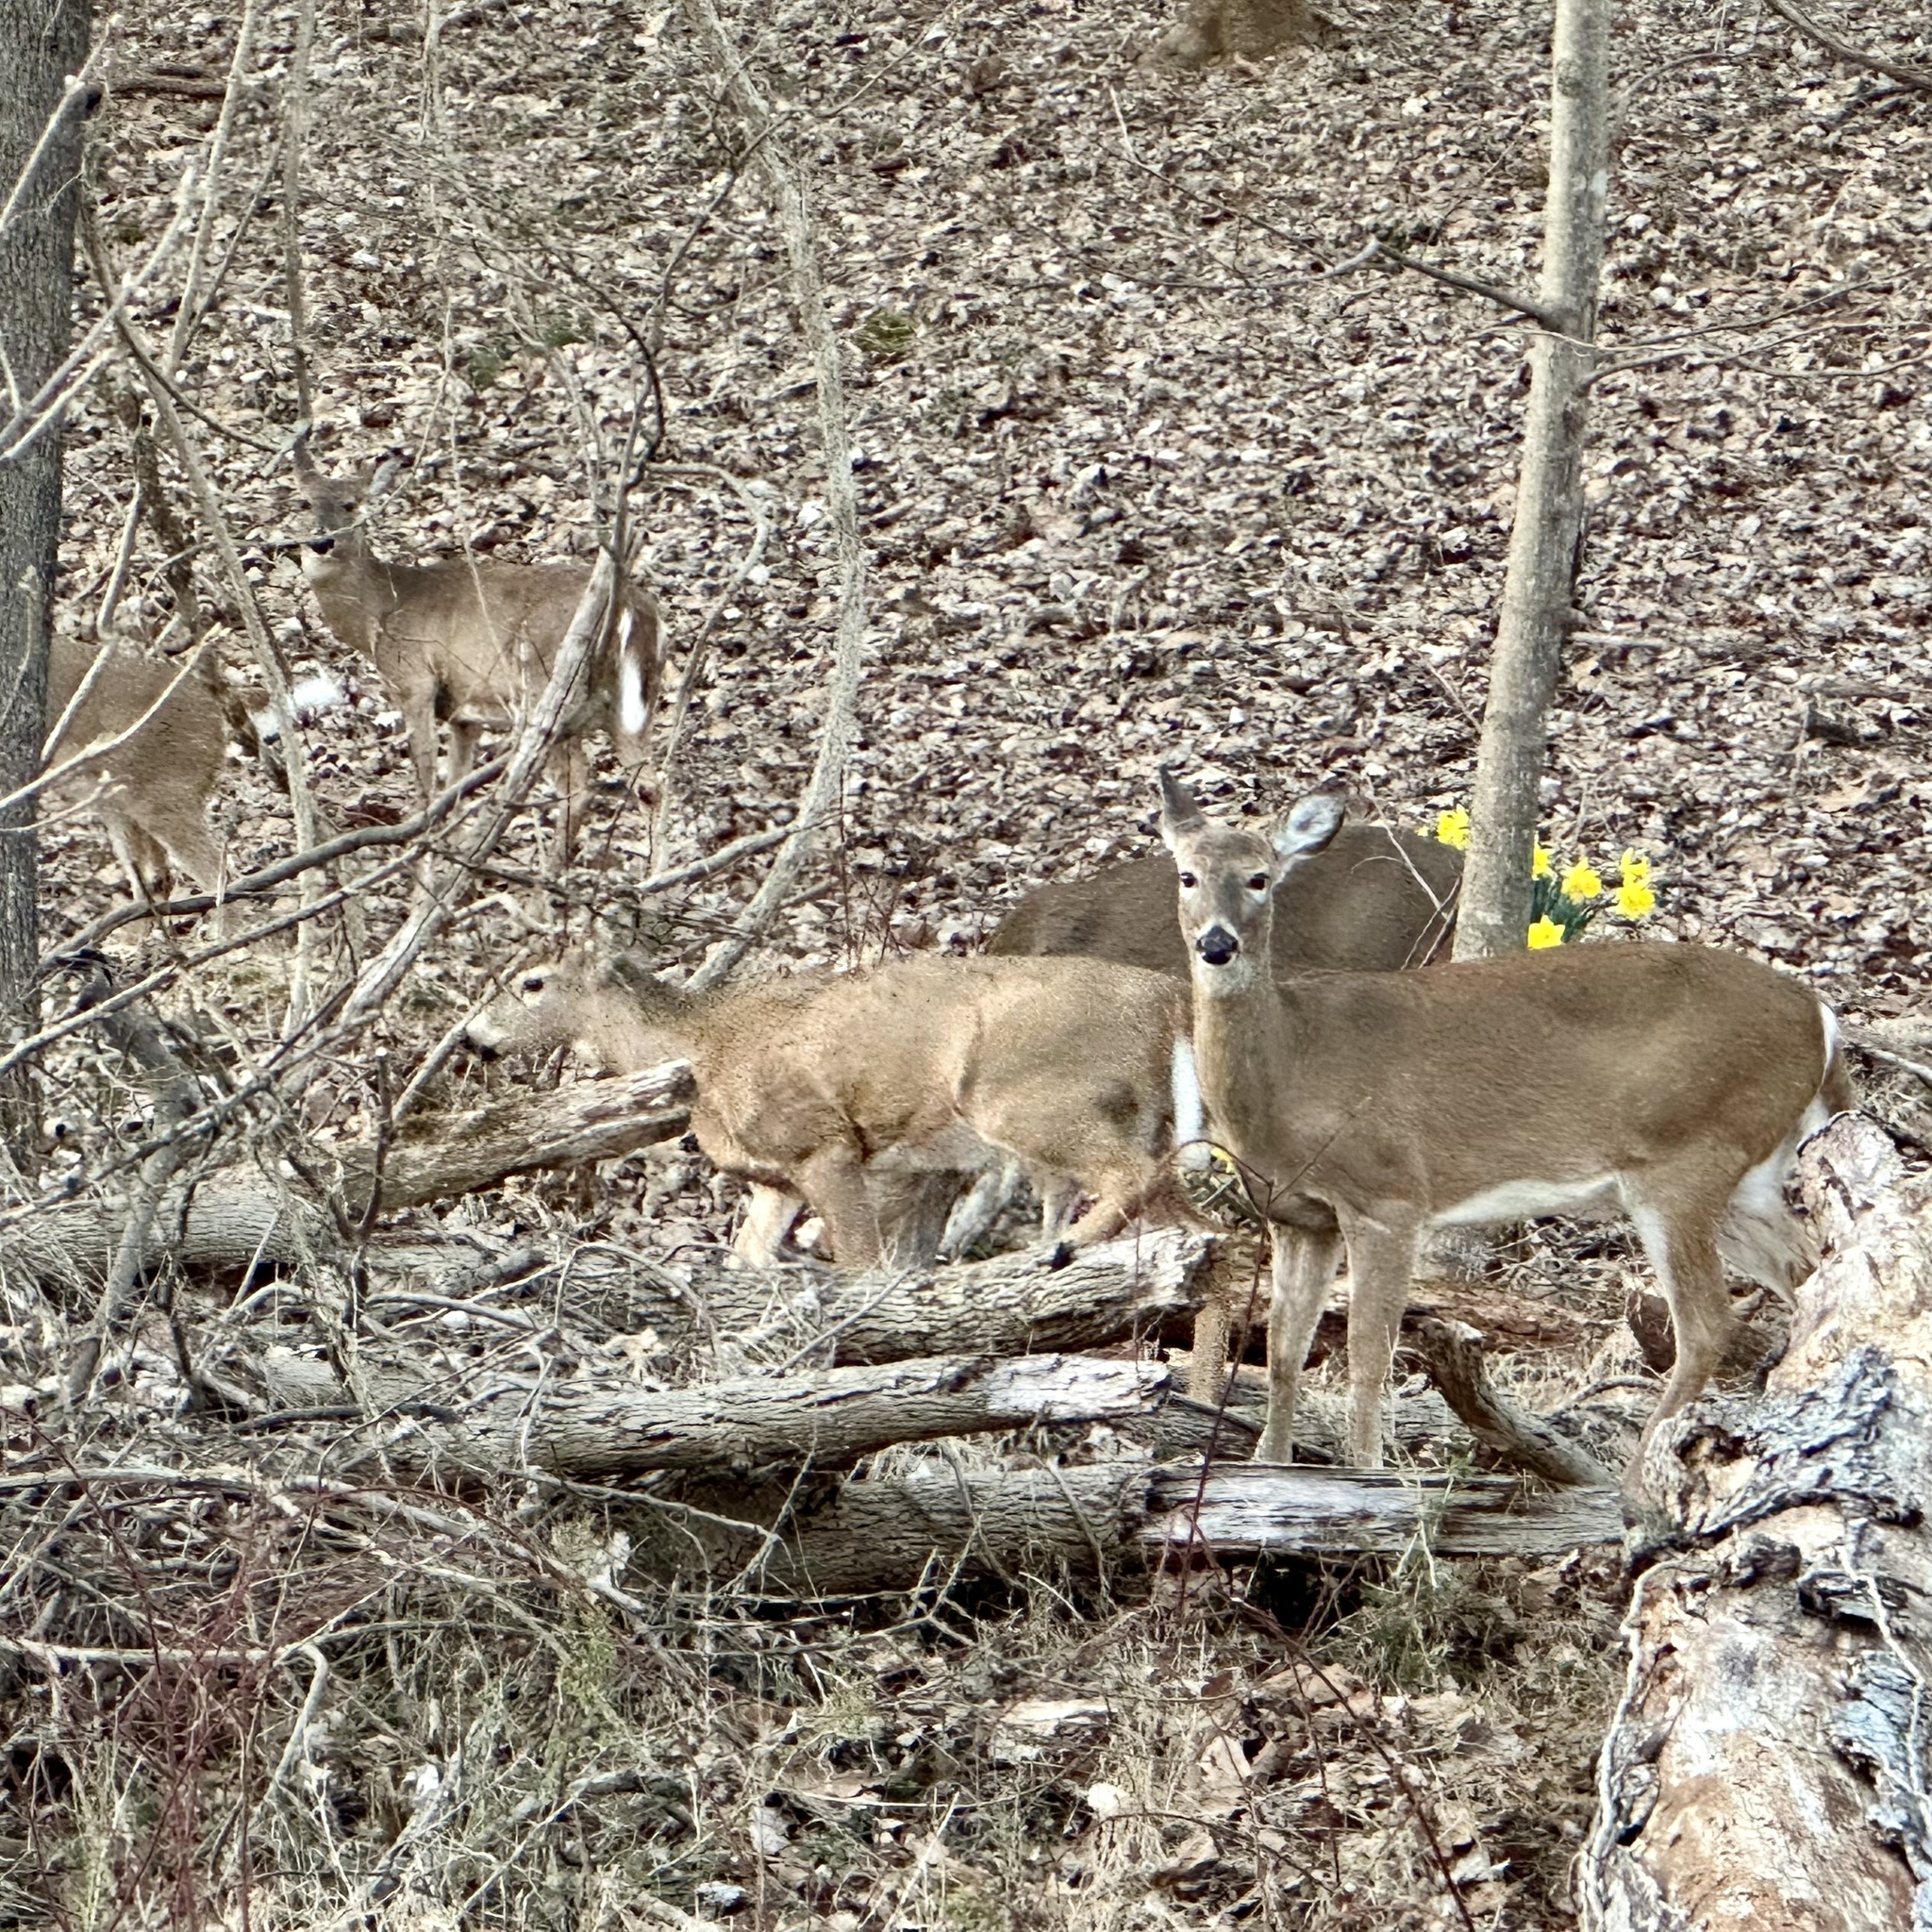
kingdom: Animalia
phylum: Chordata
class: Mammalia
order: Artiodactyla
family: Cervidae
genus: Odocoileus
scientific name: Odocoileus virginianus
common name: White-tailed deer
